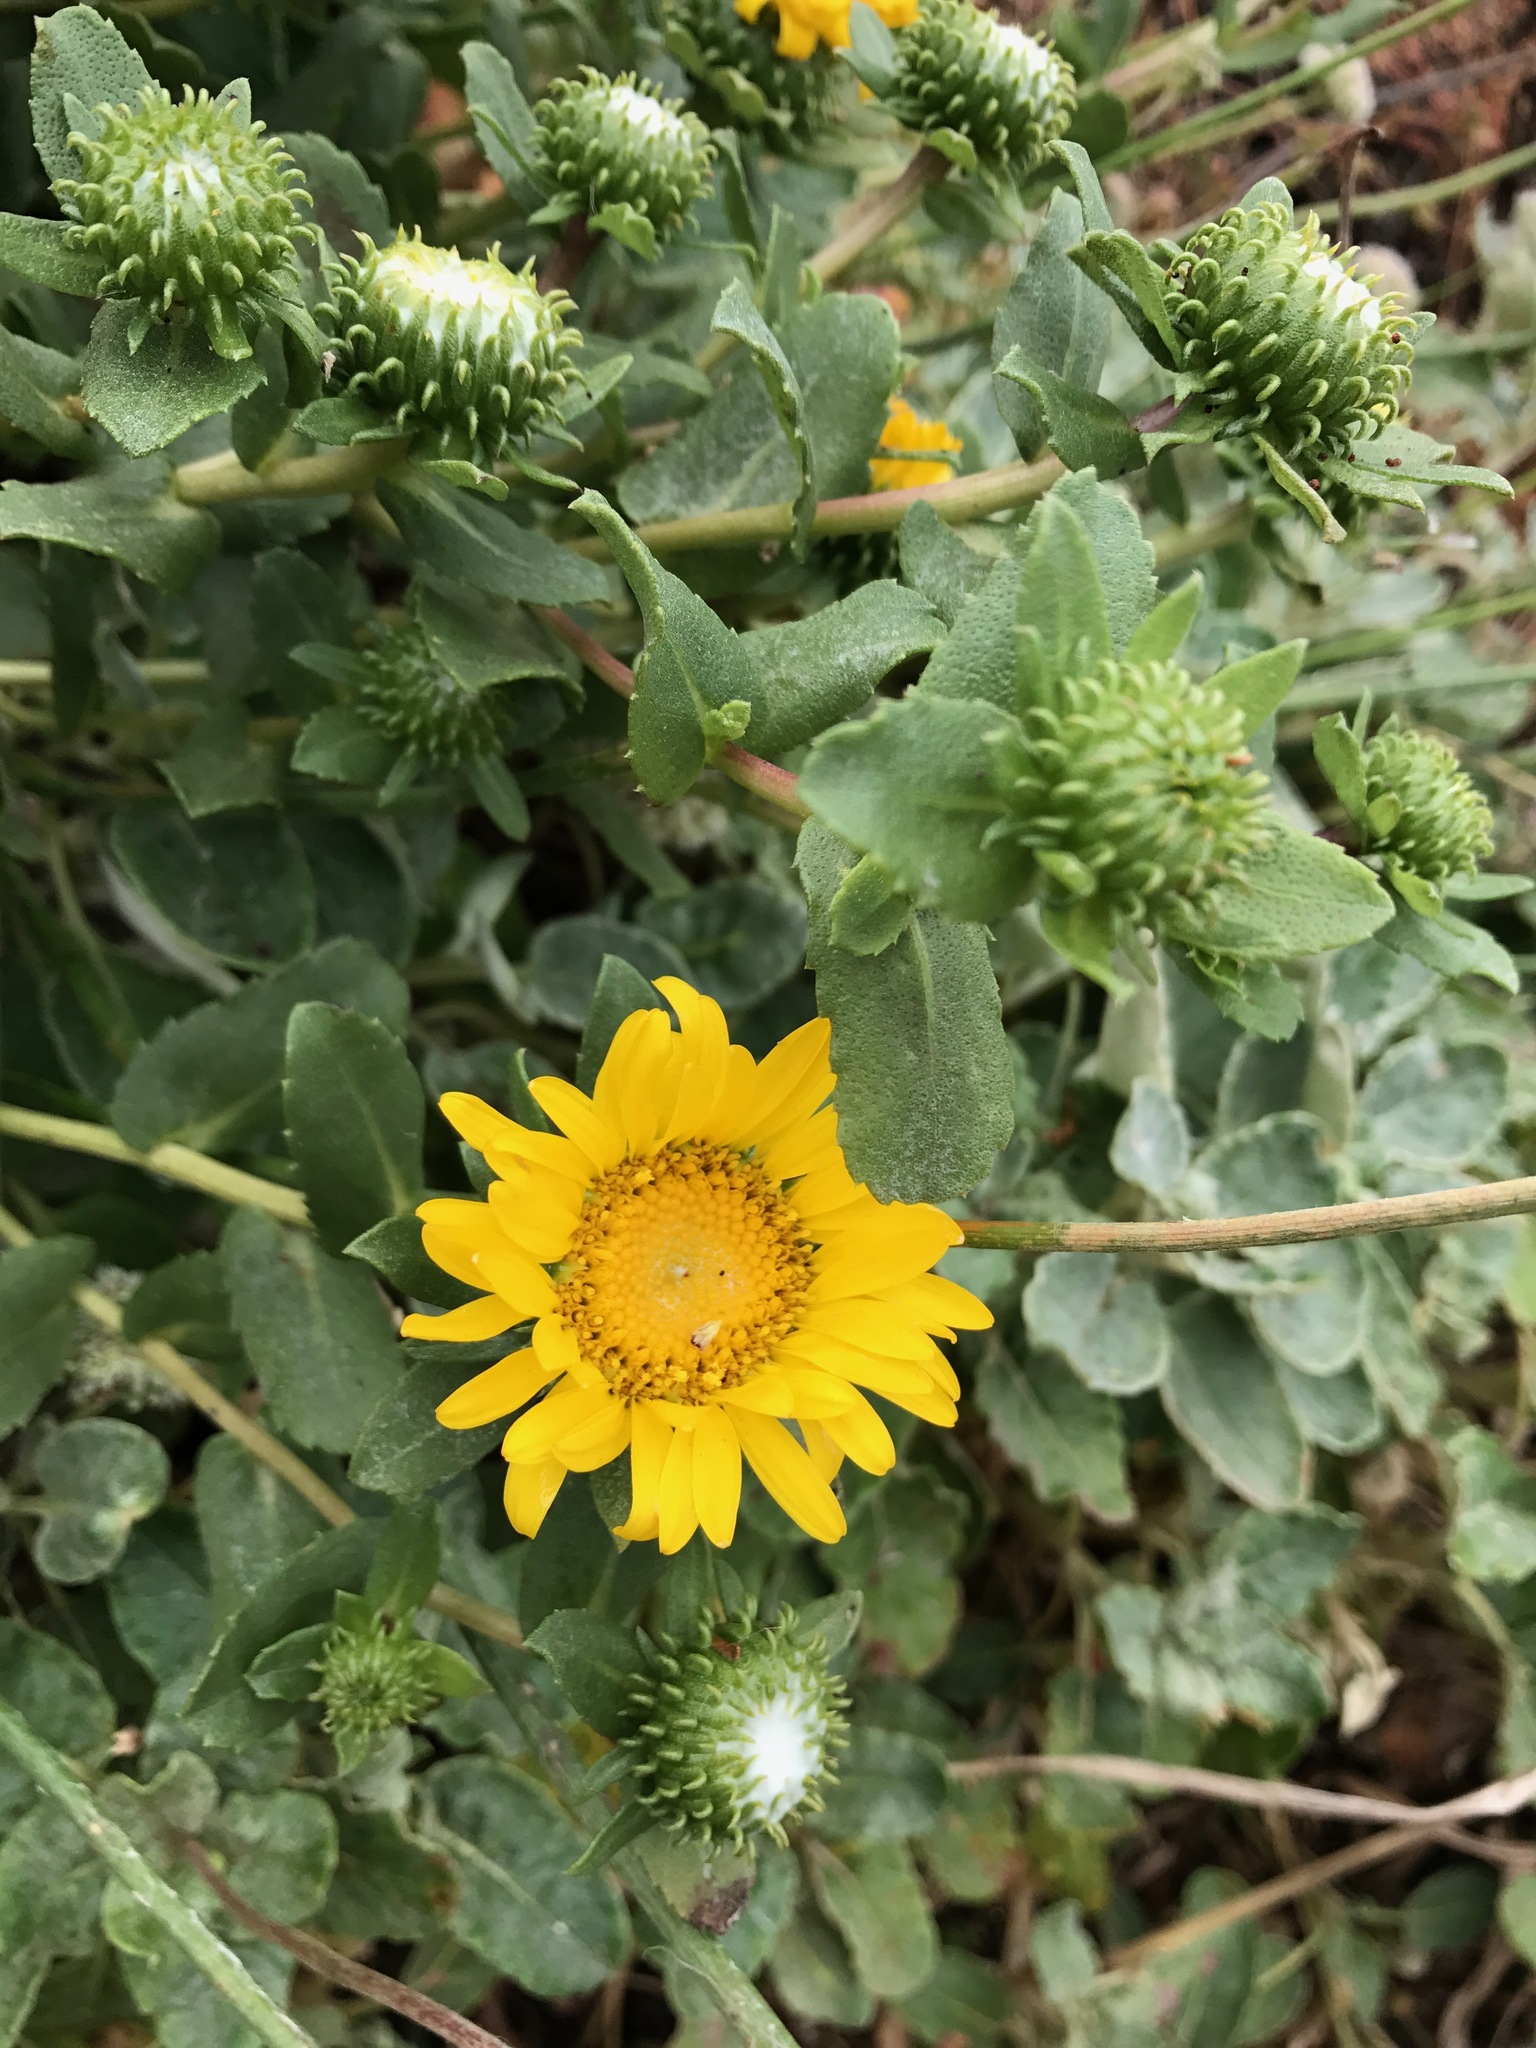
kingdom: Plantae
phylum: Tracheophyta
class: Magnoliopsida
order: Asterales
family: Asteraceae
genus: Grindelia
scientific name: Grindelia hirsutula
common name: Hairy gumweed
